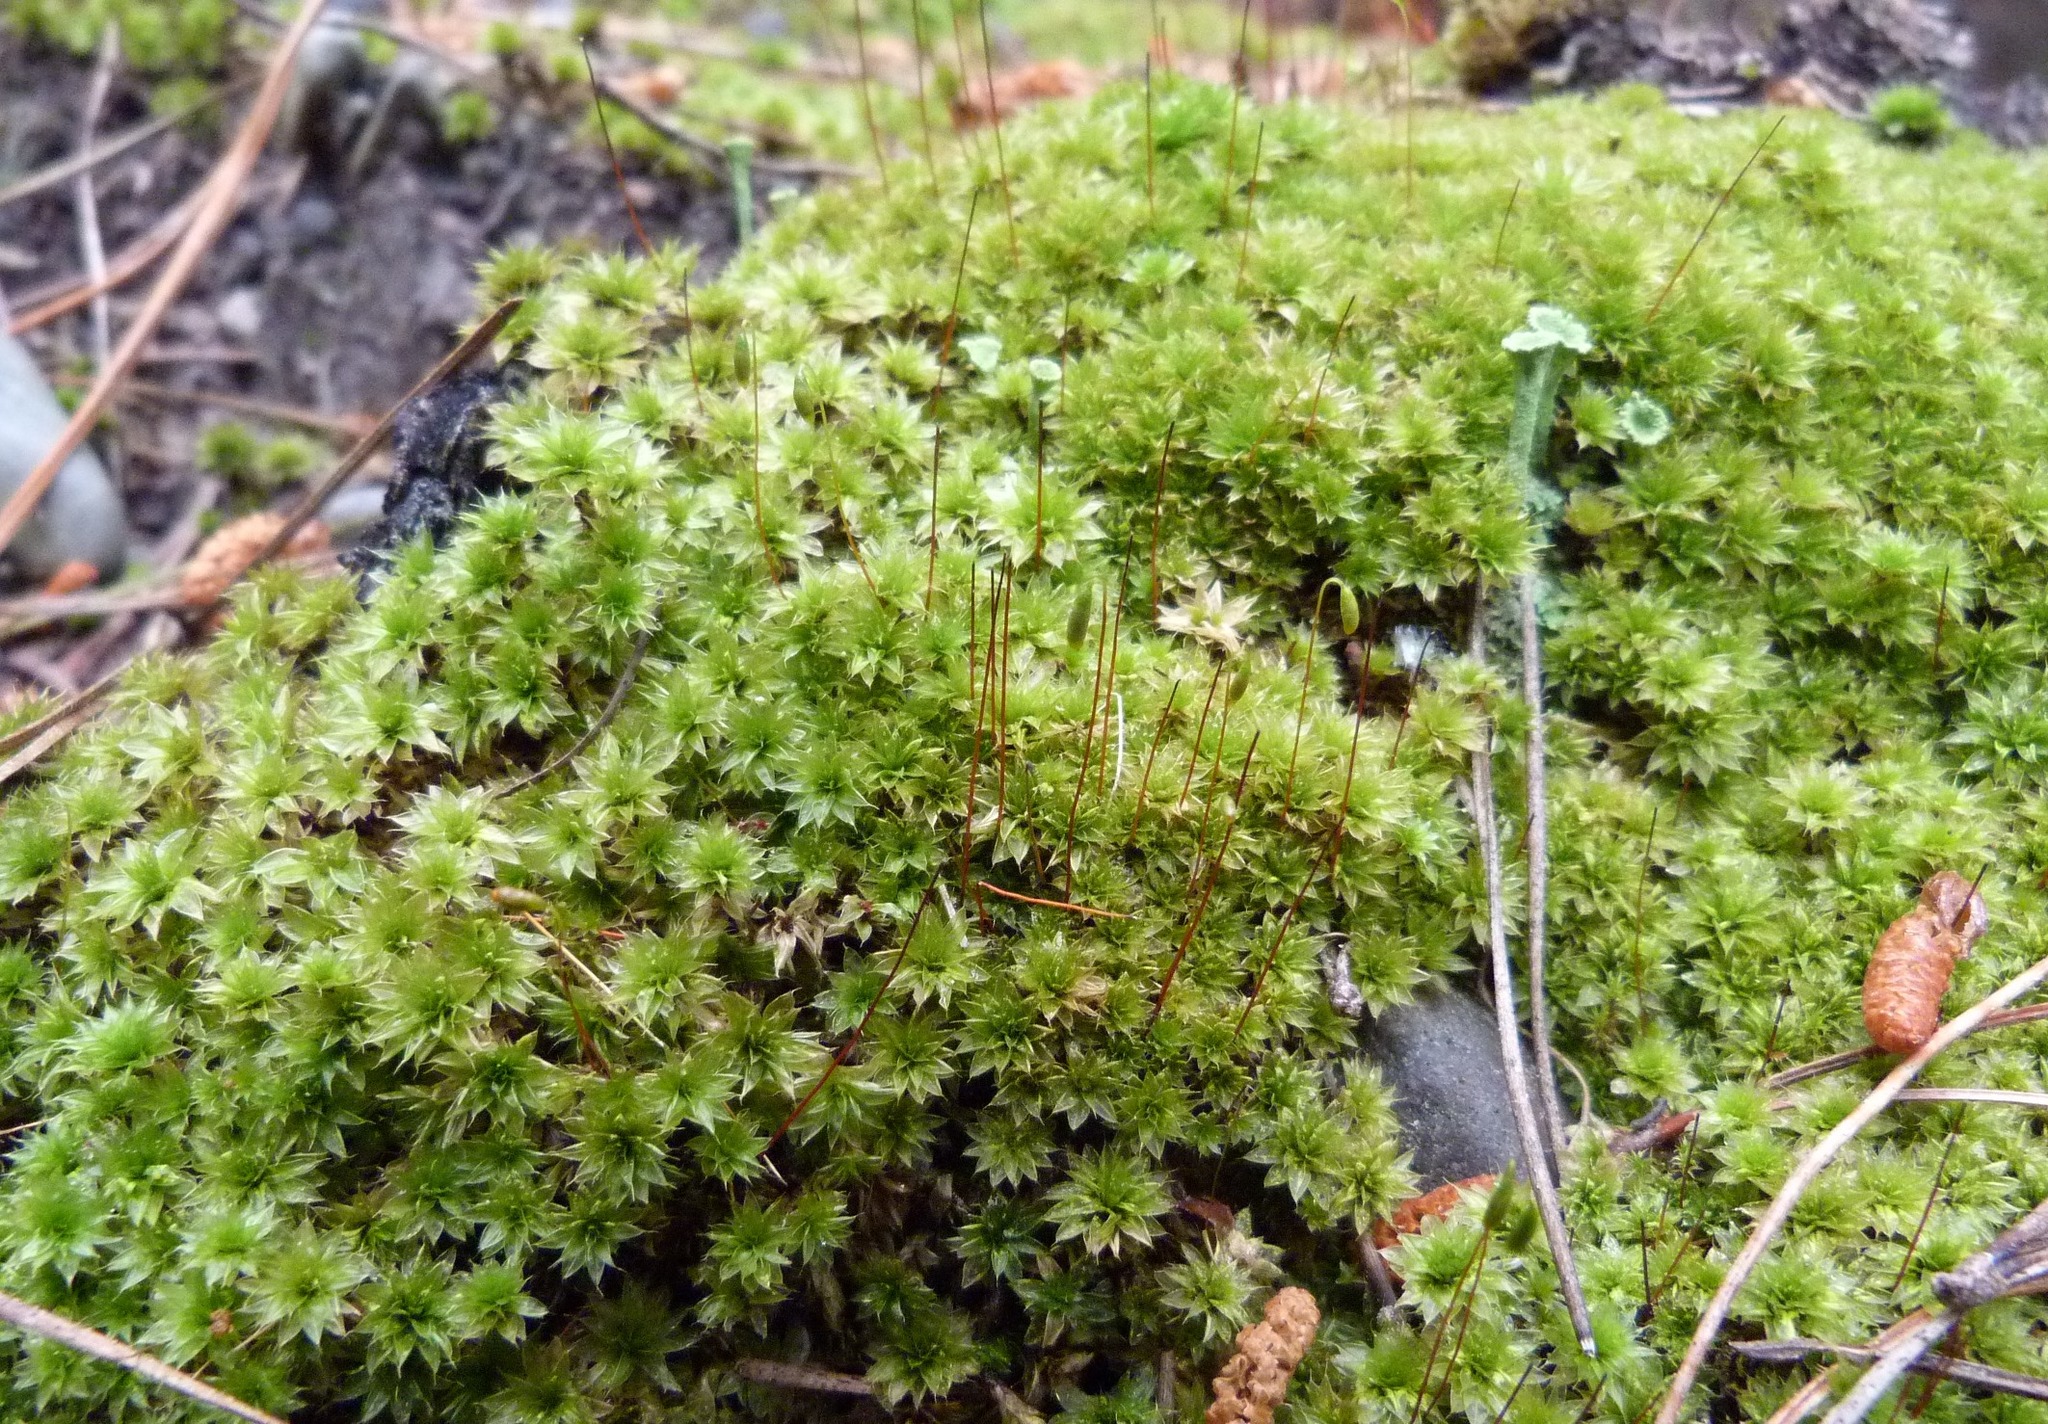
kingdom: Plantae
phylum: Bryophyta
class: Bryopsida
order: Bryales
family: Bryaceae
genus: Rosulabryum
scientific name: Rosulabryum truncorum
